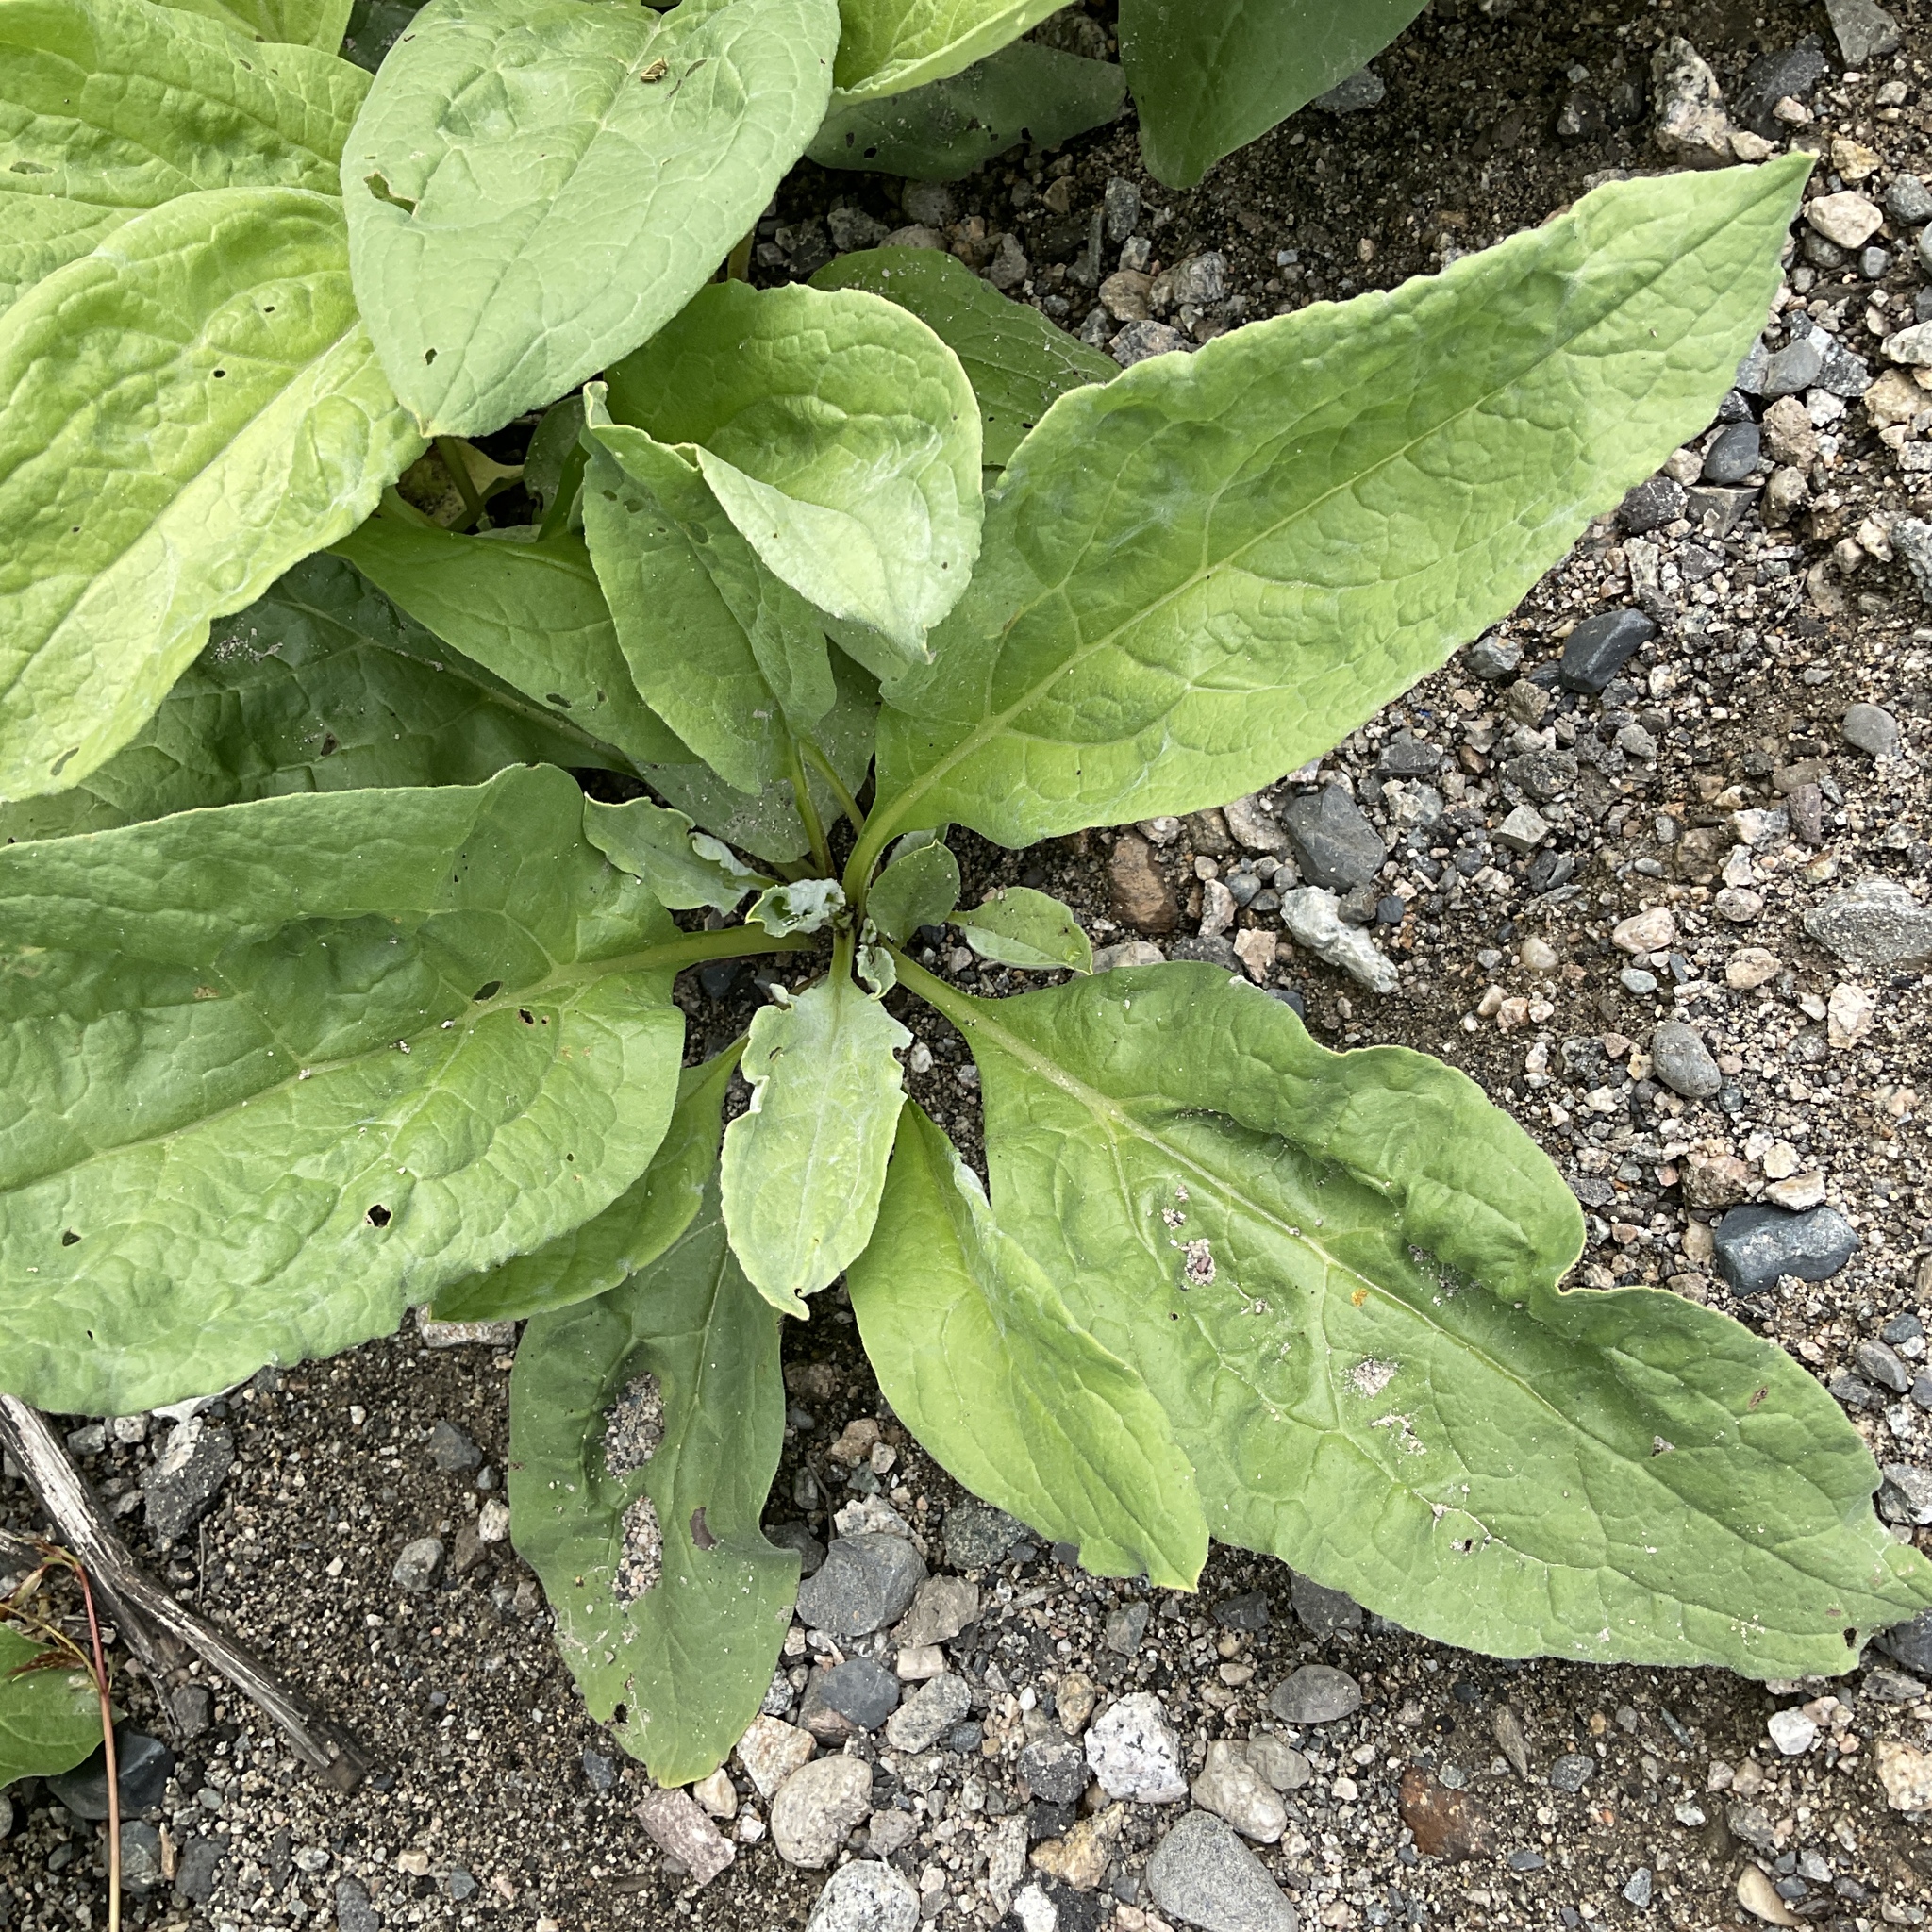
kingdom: Plantae
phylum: Tracheophyta
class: Magnoliopsida
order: Boraginales
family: Boraginaceae
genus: Cynoglossum
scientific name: Cynoglossum officinale
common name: Hound's-tongue
